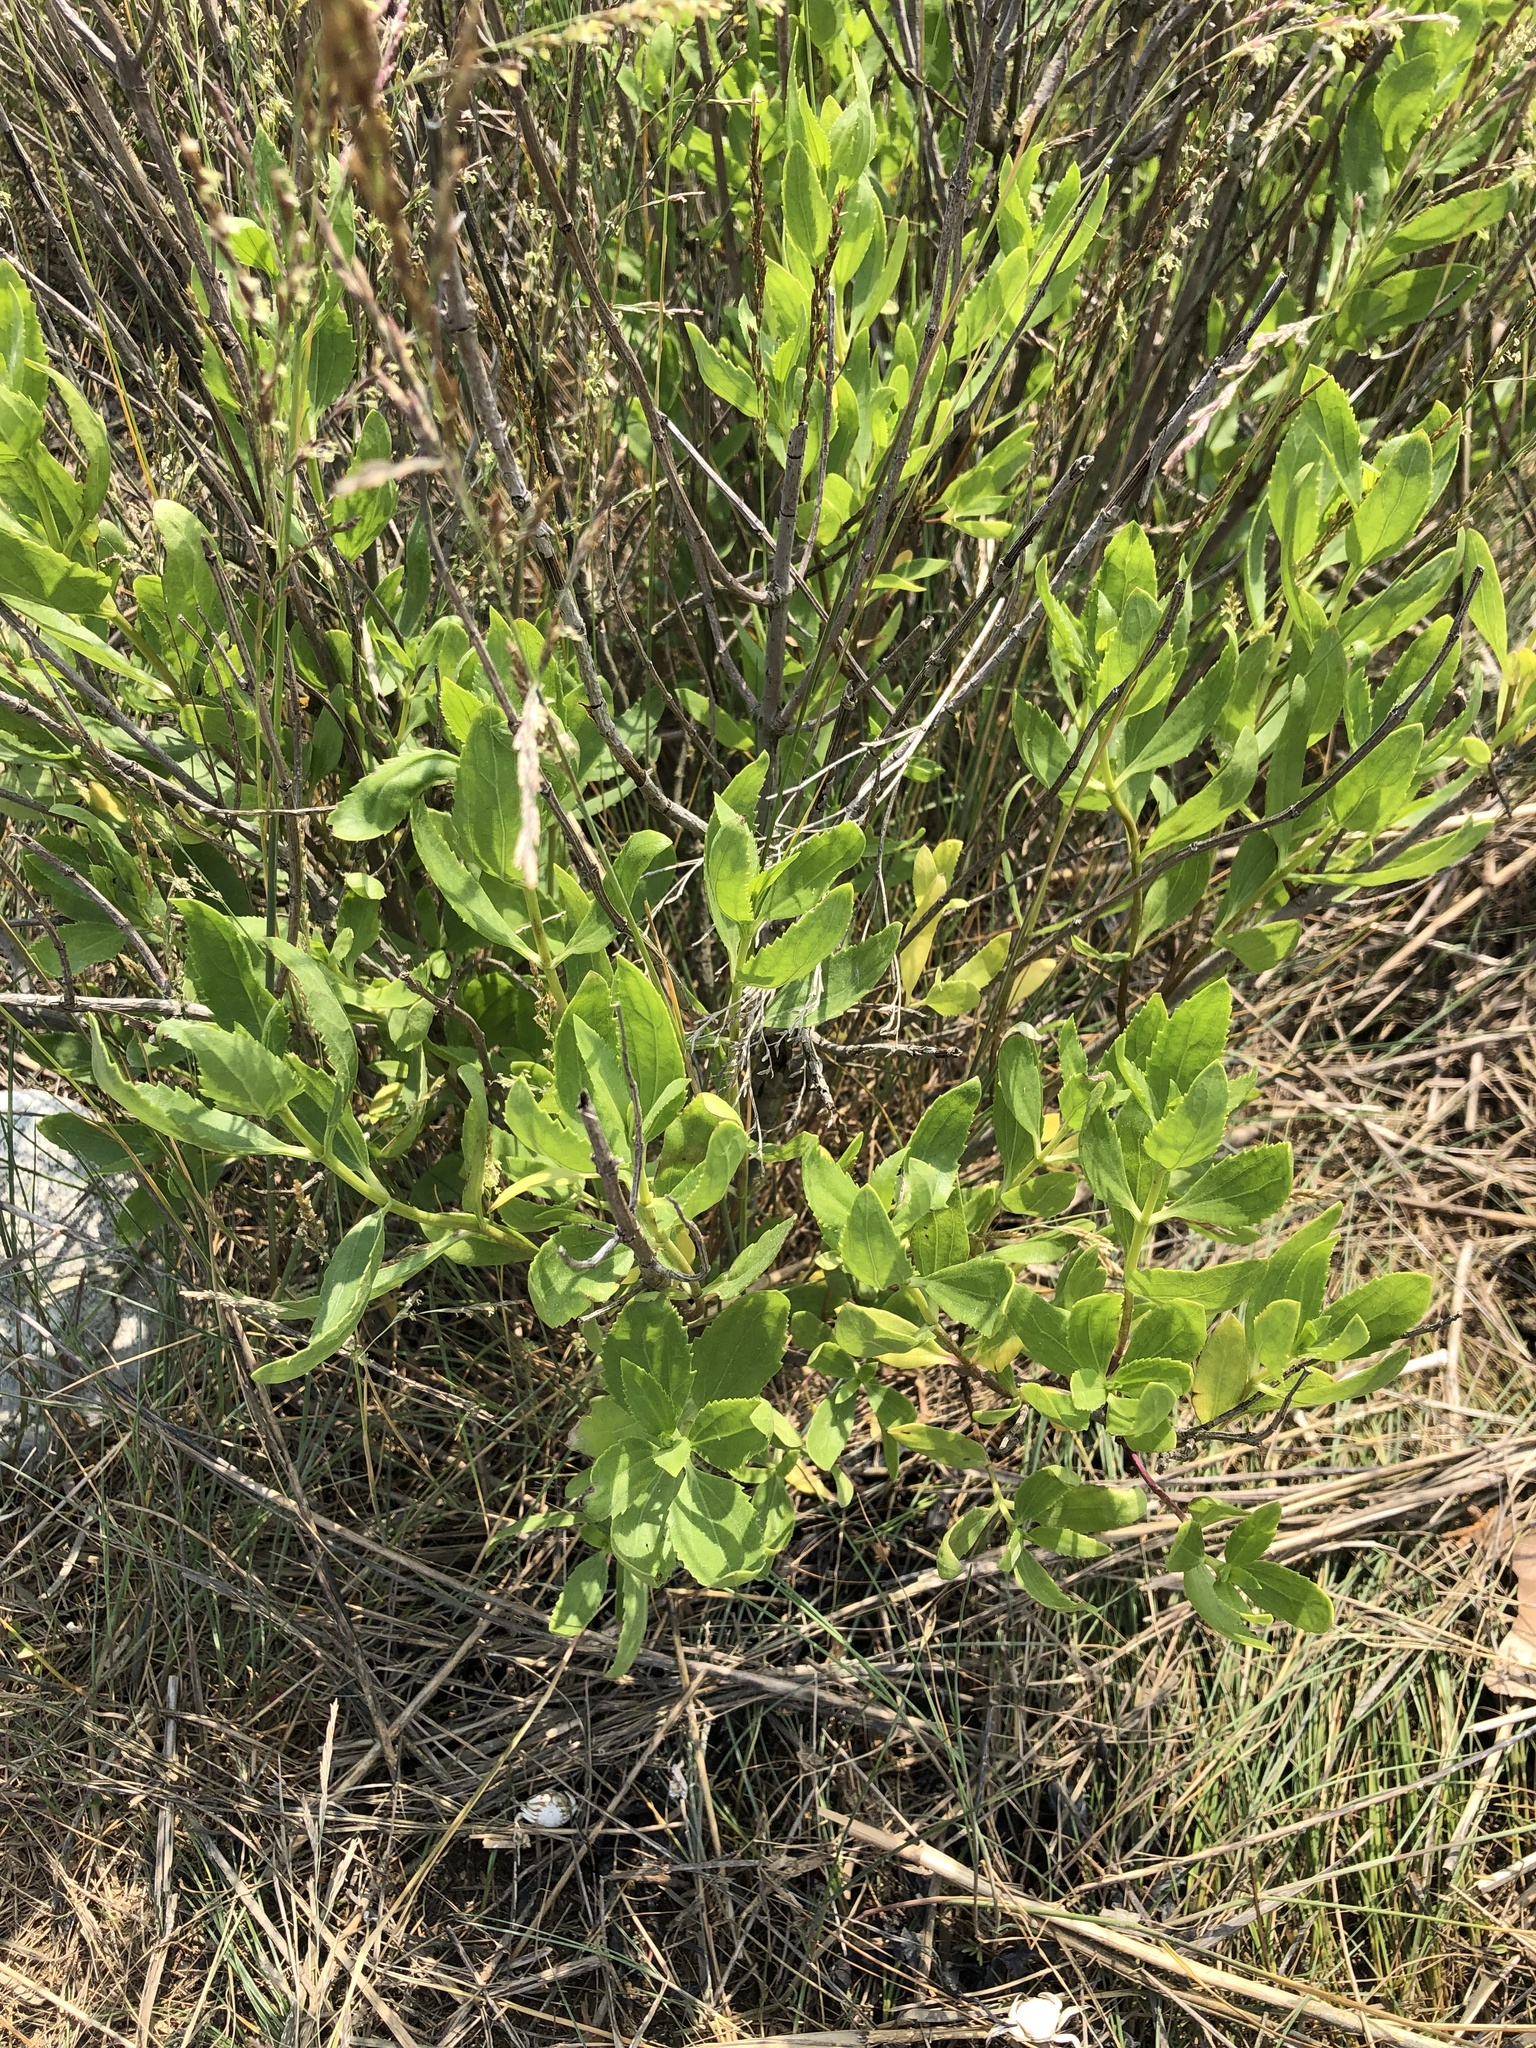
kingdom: Plantae
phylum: Tracheophyta
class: Magnoliopsida
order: Asterales
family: Asteraceae
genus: Iva
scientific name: Iva frutescens
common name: Big-leaved marsh-elder
